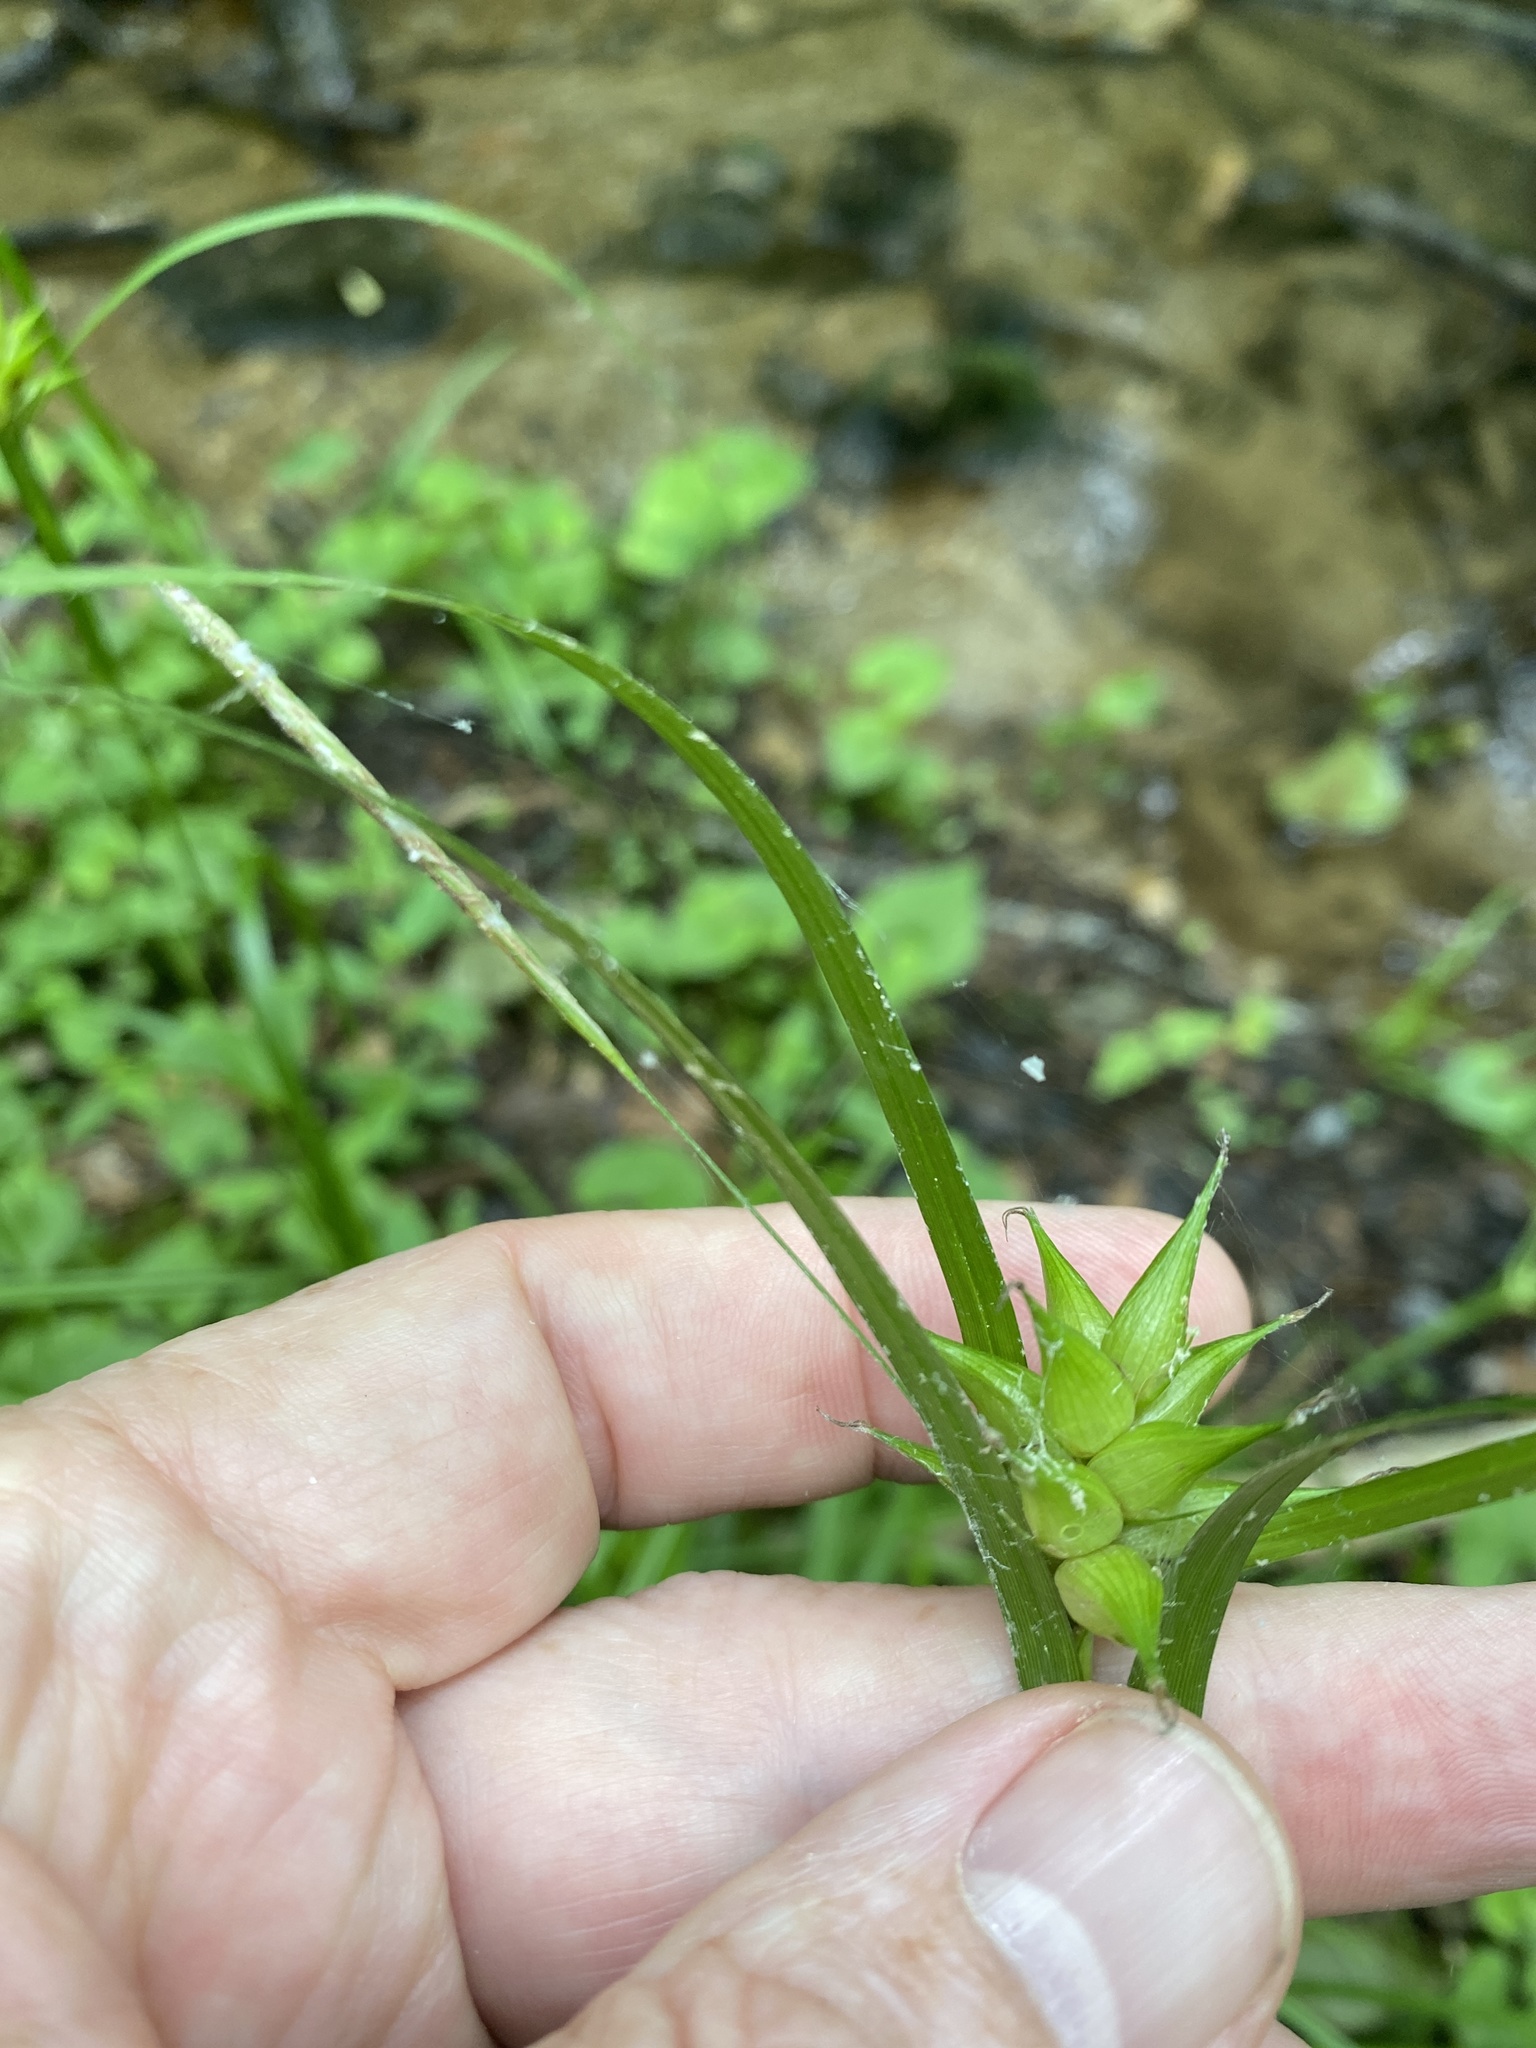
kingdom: Plantae
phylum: Tracheophyta
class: Liliopsida
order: Poales
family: Cyperaceae
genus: Carex
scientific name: Carex intumescens
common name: Greater bladder sedge
